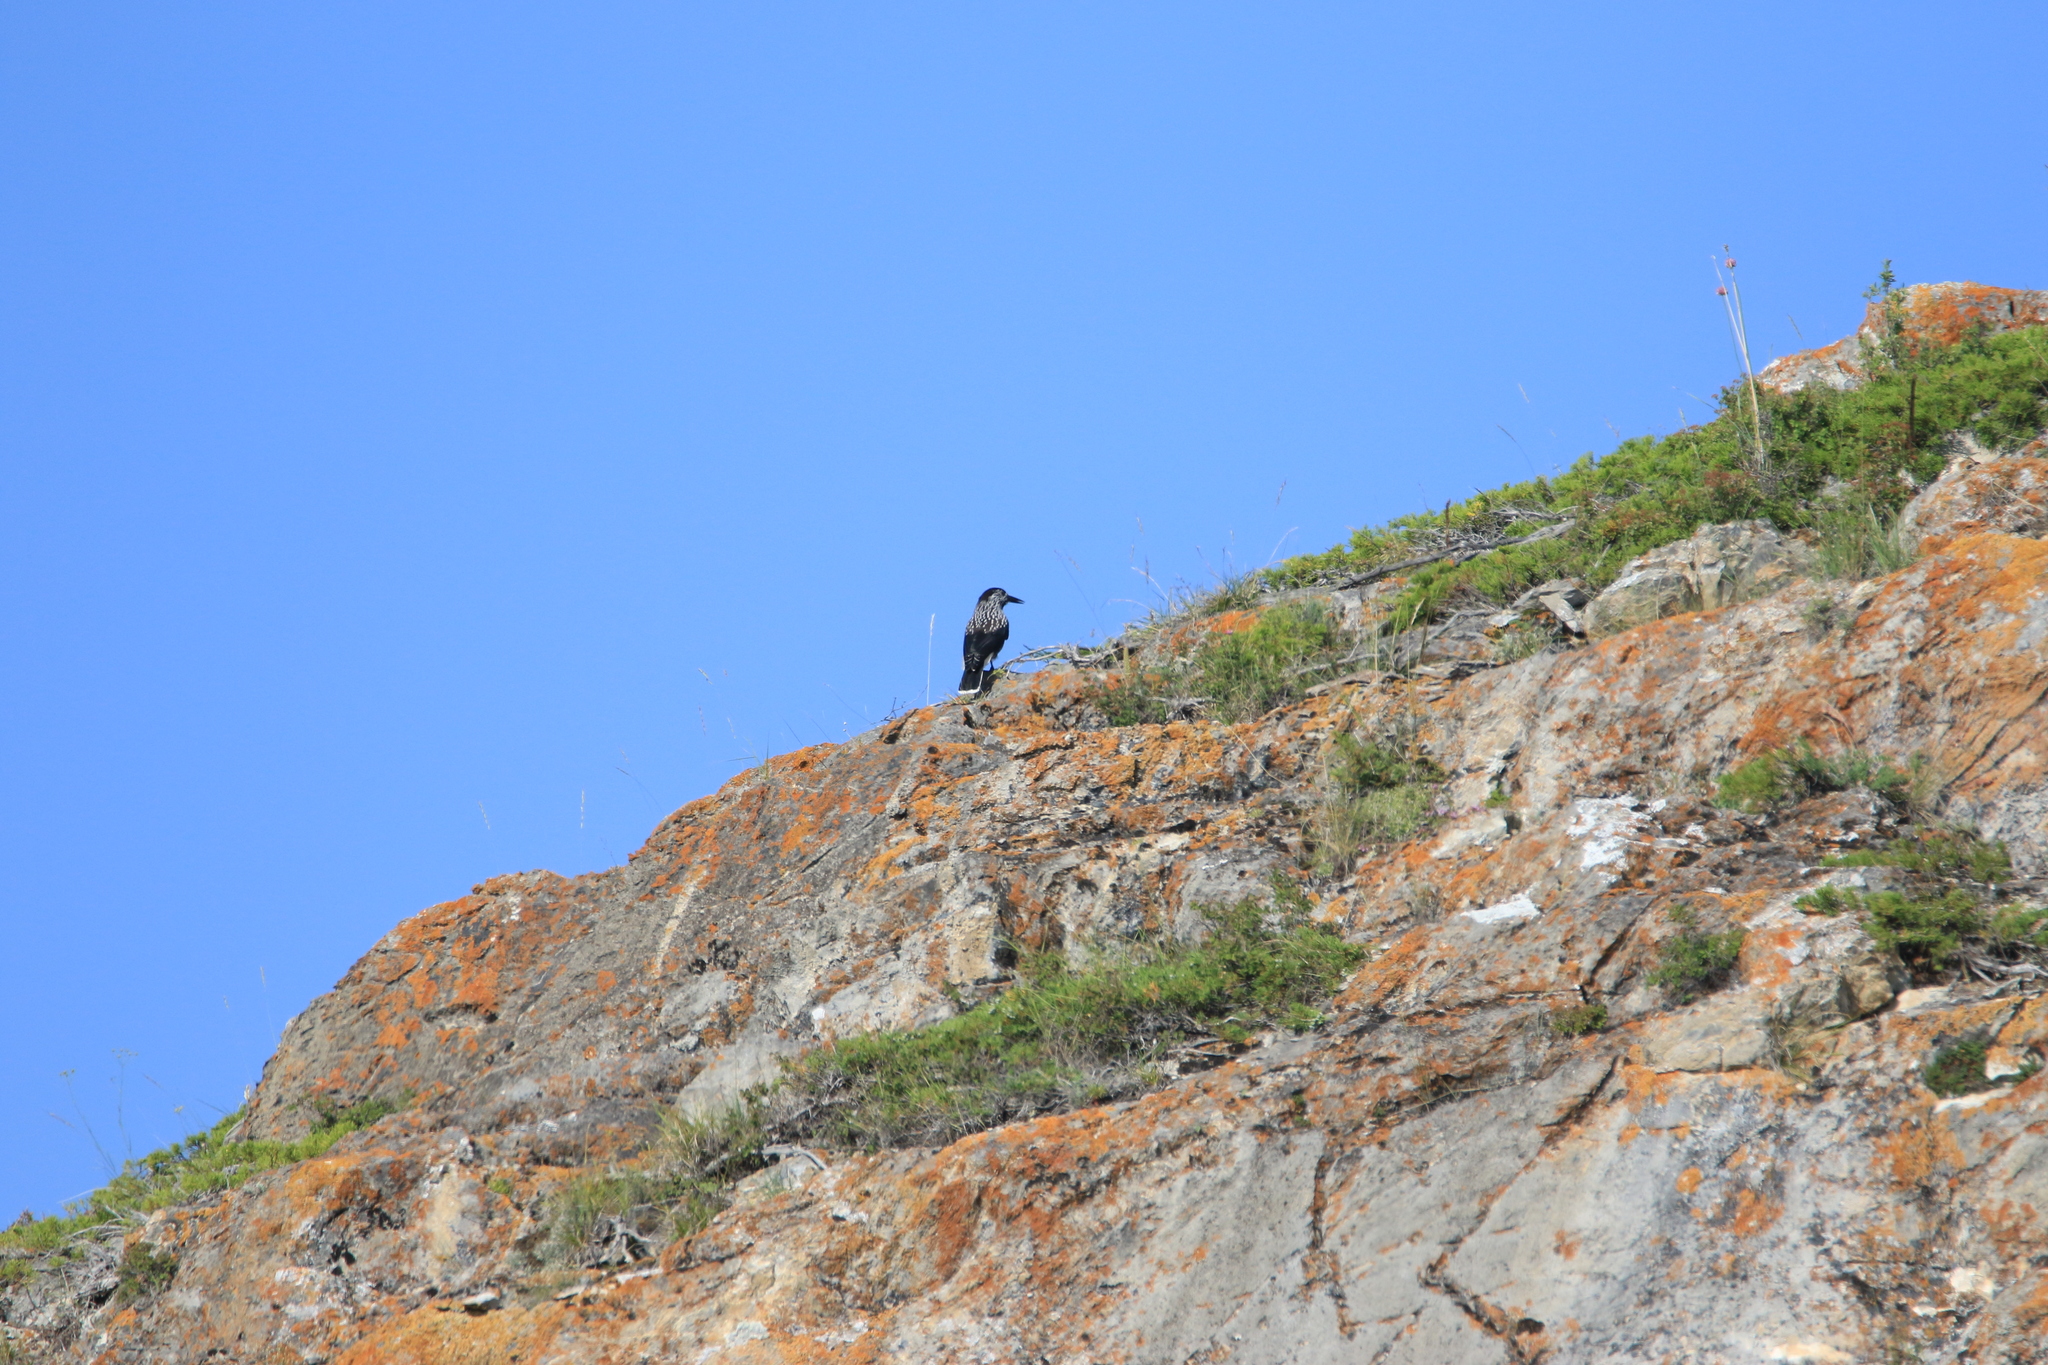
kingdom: Animalia
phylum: Chordata
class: Aves
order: Passeriformes
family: Corvidae
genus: Nucifraga
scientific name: Nucifraga caryocatactes
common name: Spotted nutcracker
